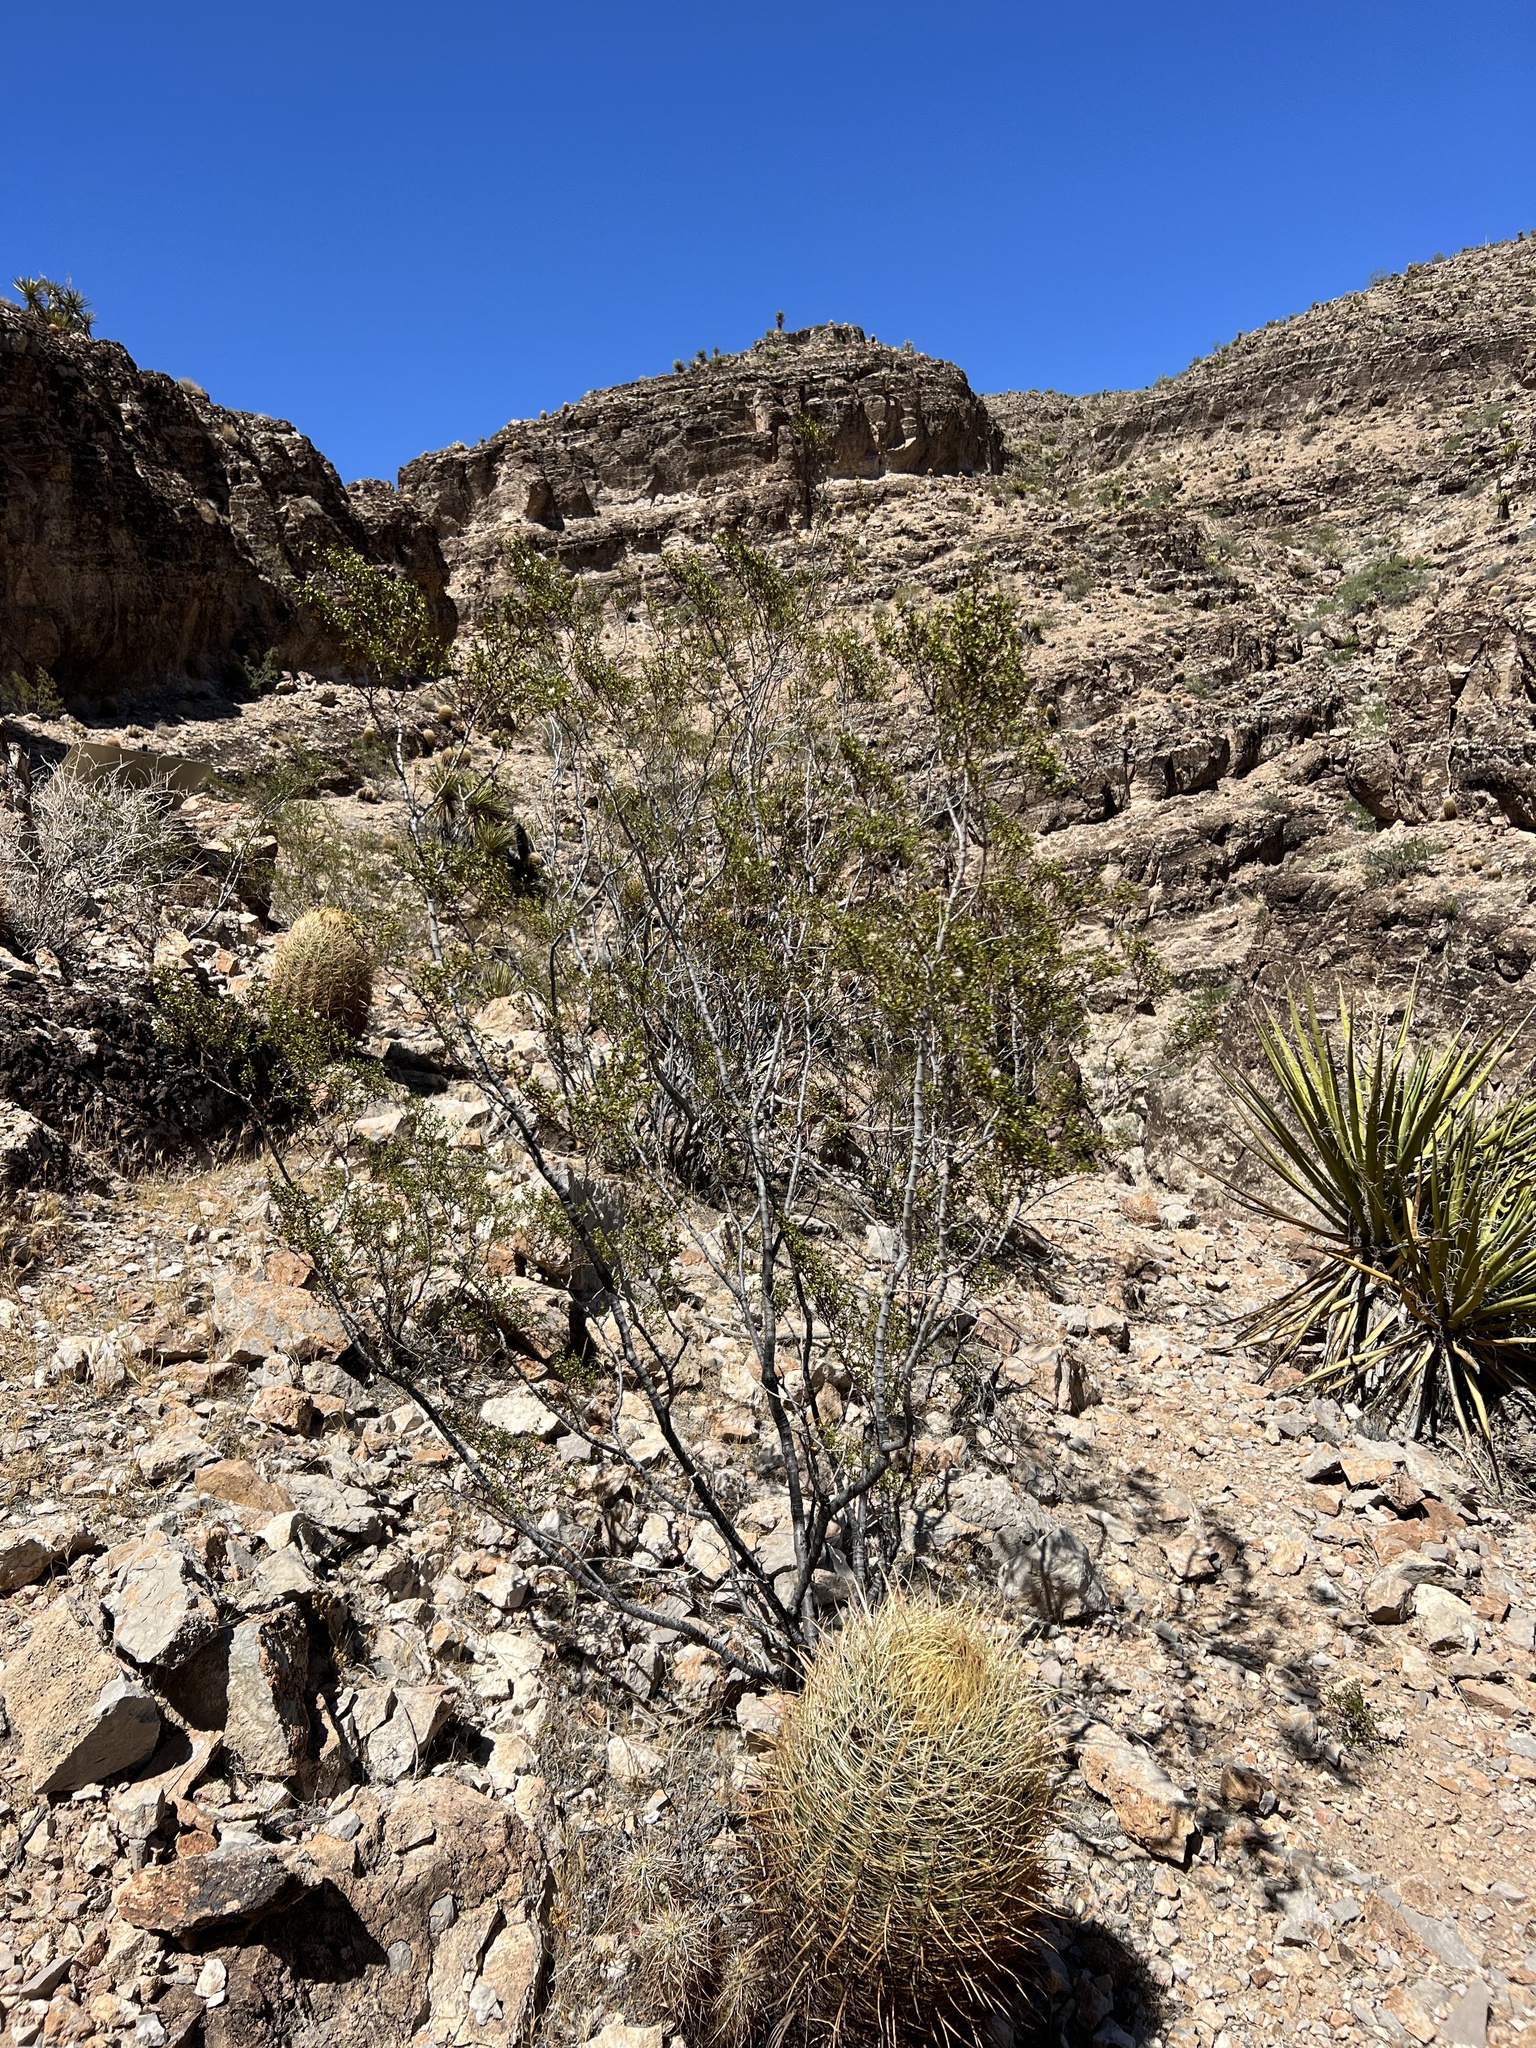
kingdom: Plantae
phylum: Tracheophyta
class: Magnoliopsida
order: Zygophyllales
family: Zygophyllaceae
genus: Larrea
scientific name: Larrea tridentata
